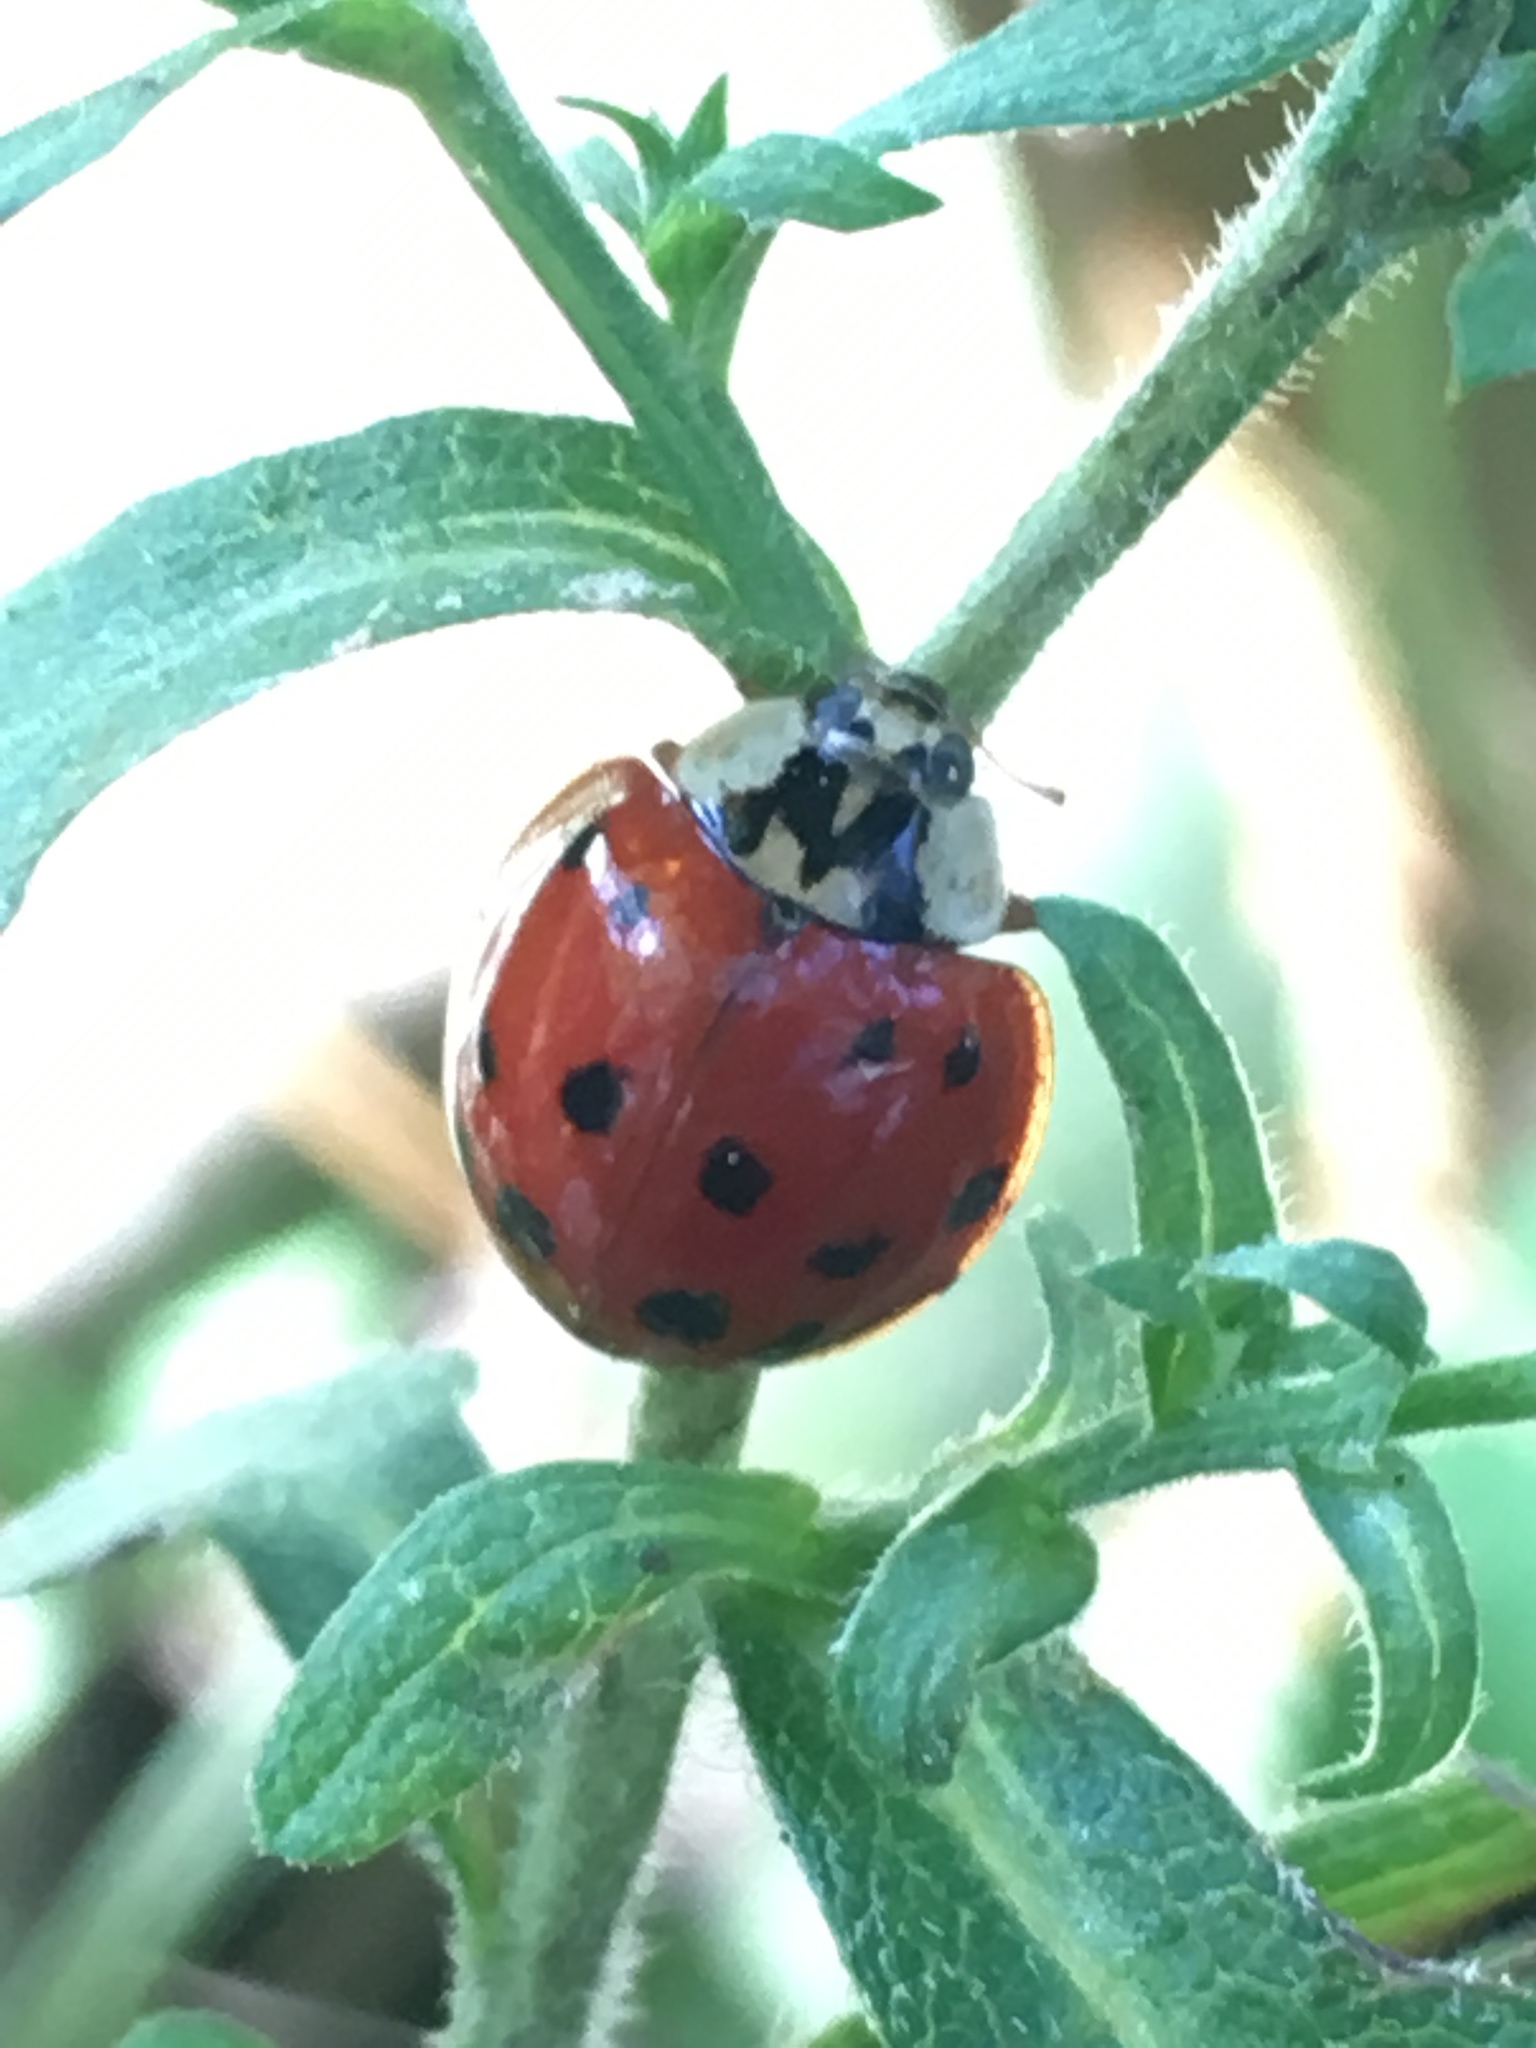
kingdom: Animalia
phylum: Arthropoda
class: Insecta
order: Coleoptera
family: Coccinellidae
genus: Harmonia
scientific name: Harmonia axyridis
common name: Harlequin ladybird
